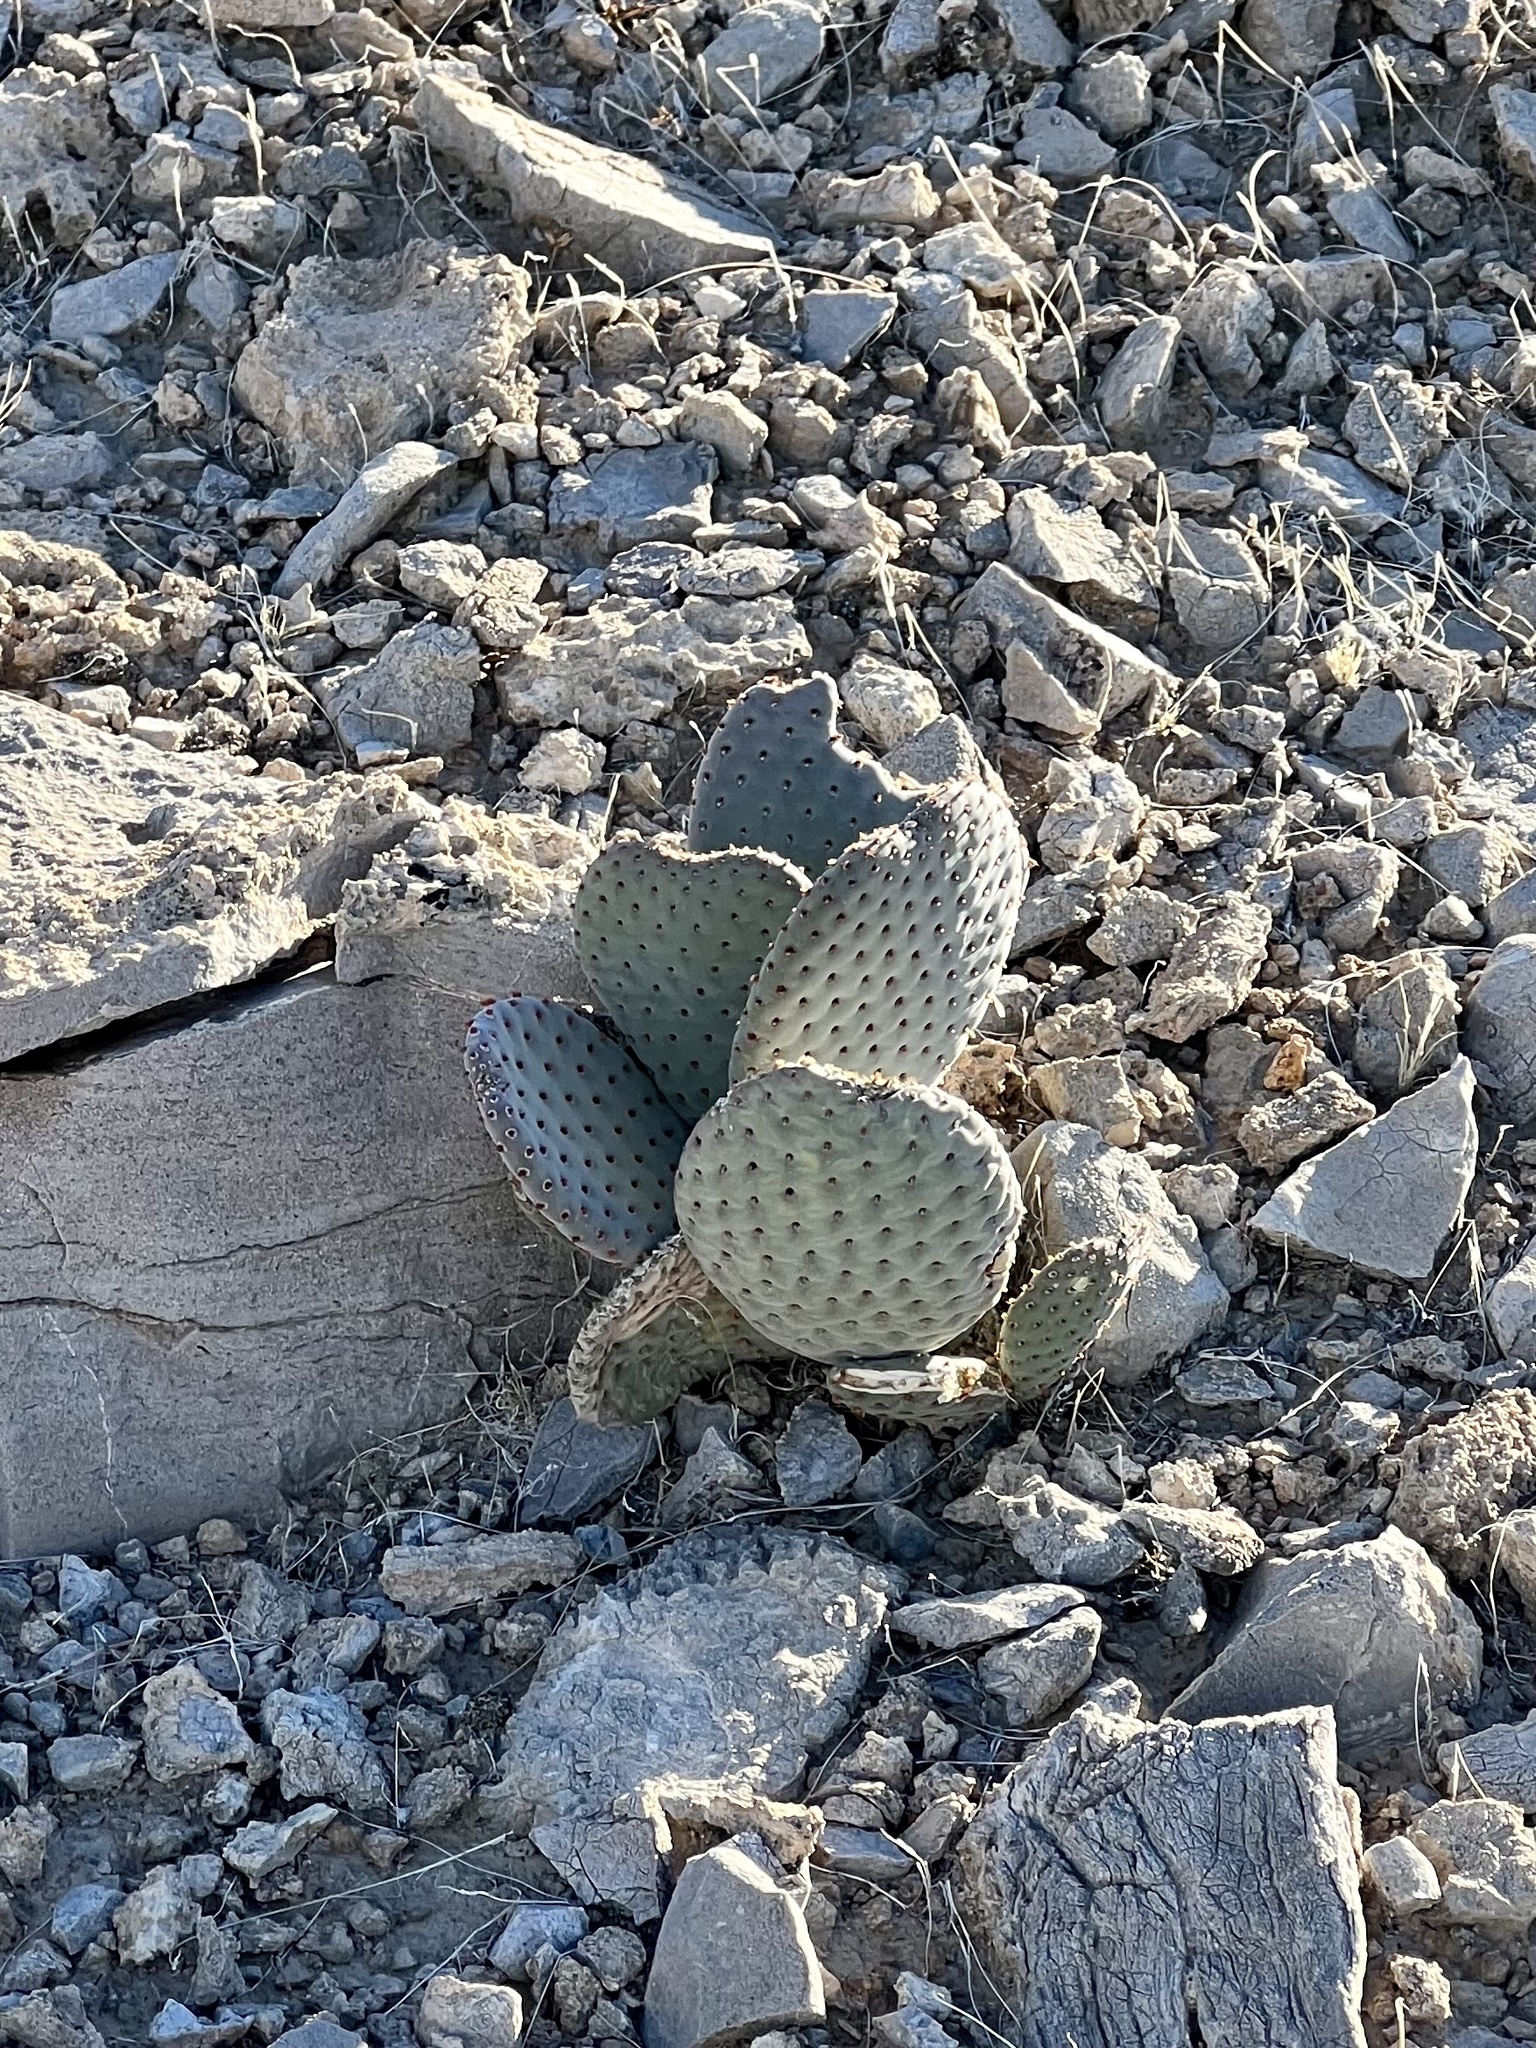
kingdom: Plantae
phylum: Tracheophyta
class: Magnoliopsida
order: Caryophyllales
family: Cactaceae
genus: Opuntia
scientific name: Opuntia basilaris
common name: Beavertail prickly-pear
